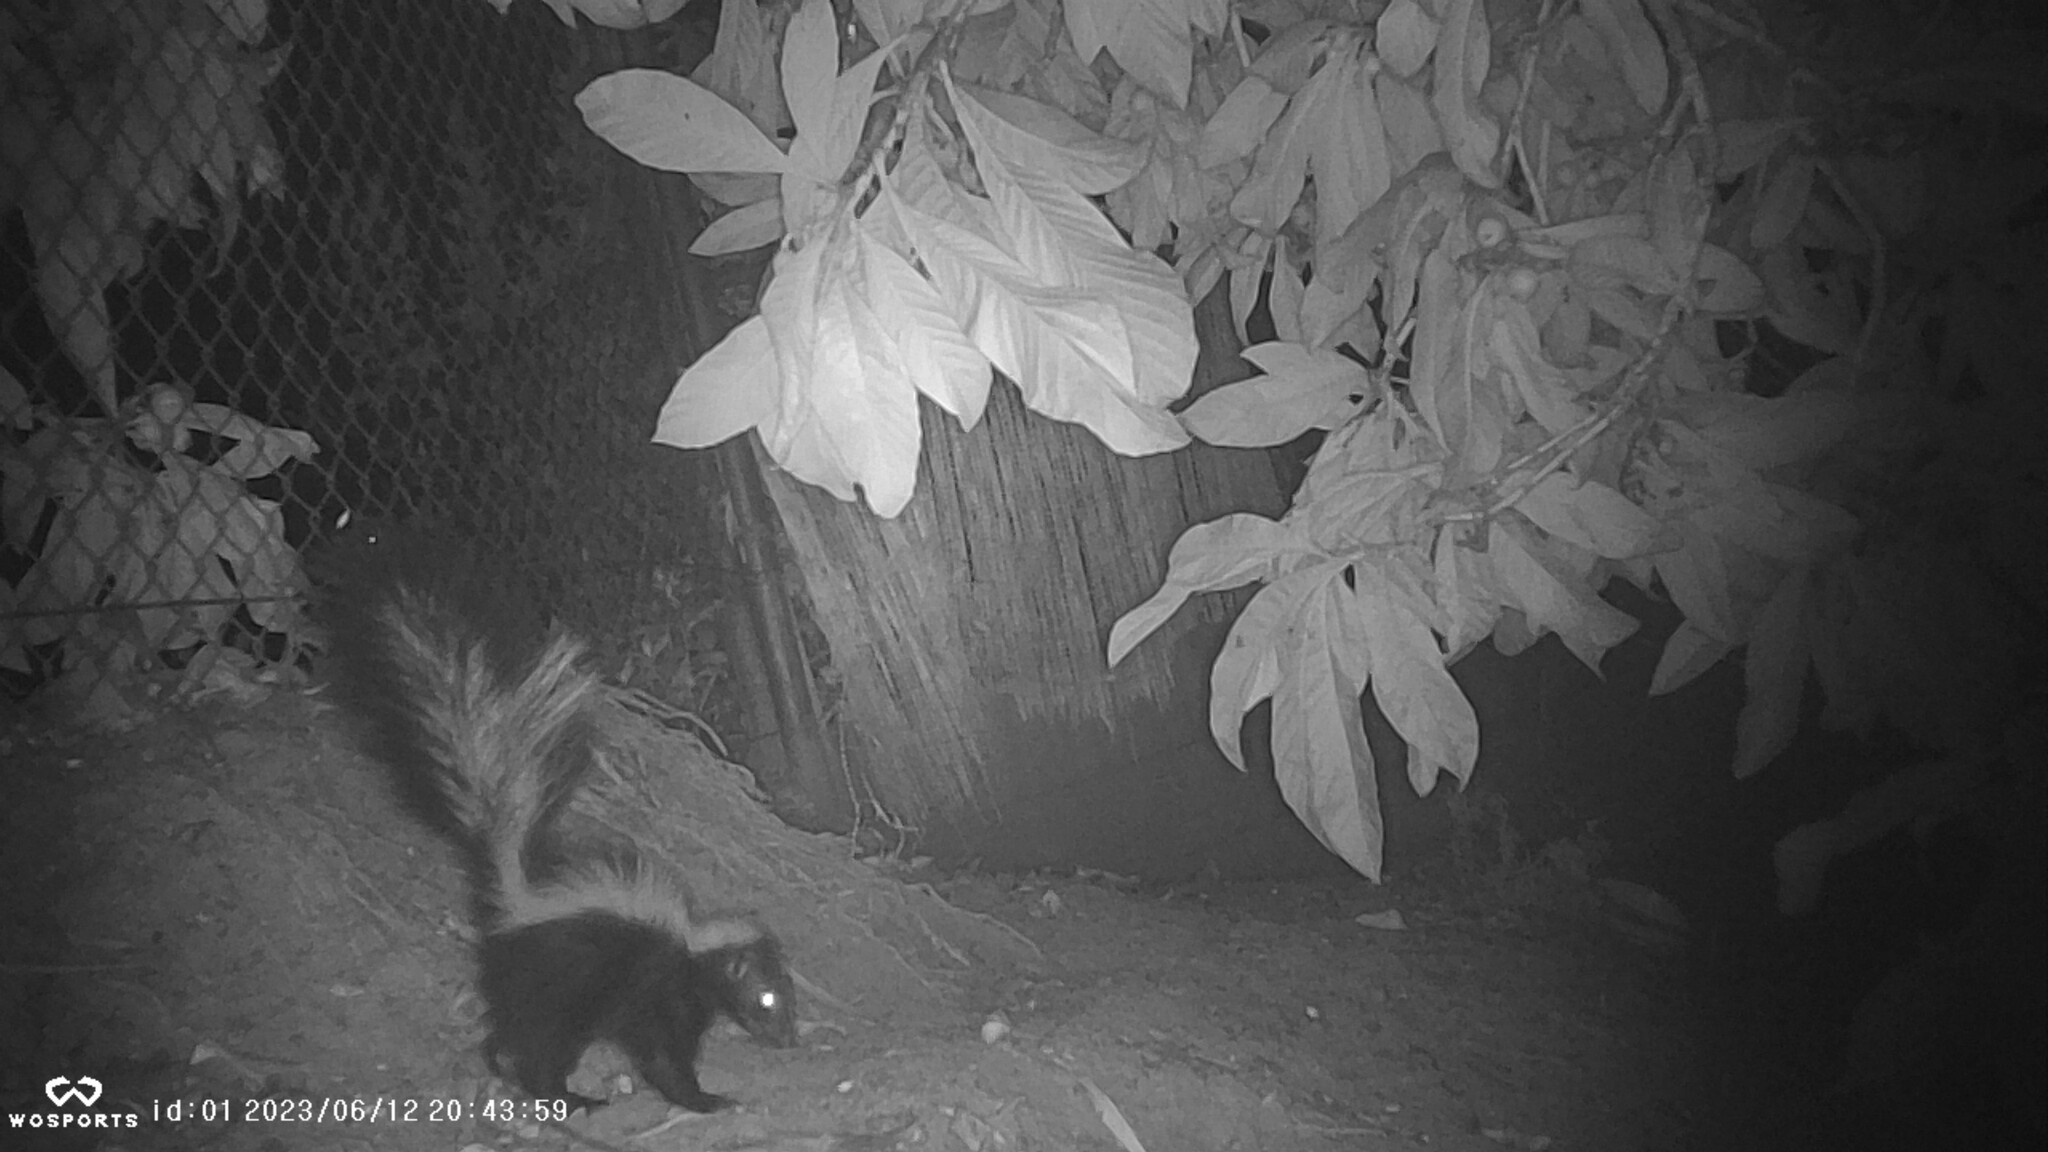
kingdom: Animalia
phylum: Chordata
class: Mammalia
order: Carnivora
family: Mephitidae
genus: Mephitis
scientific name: Mephitis mephitis
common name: Striped skunk
